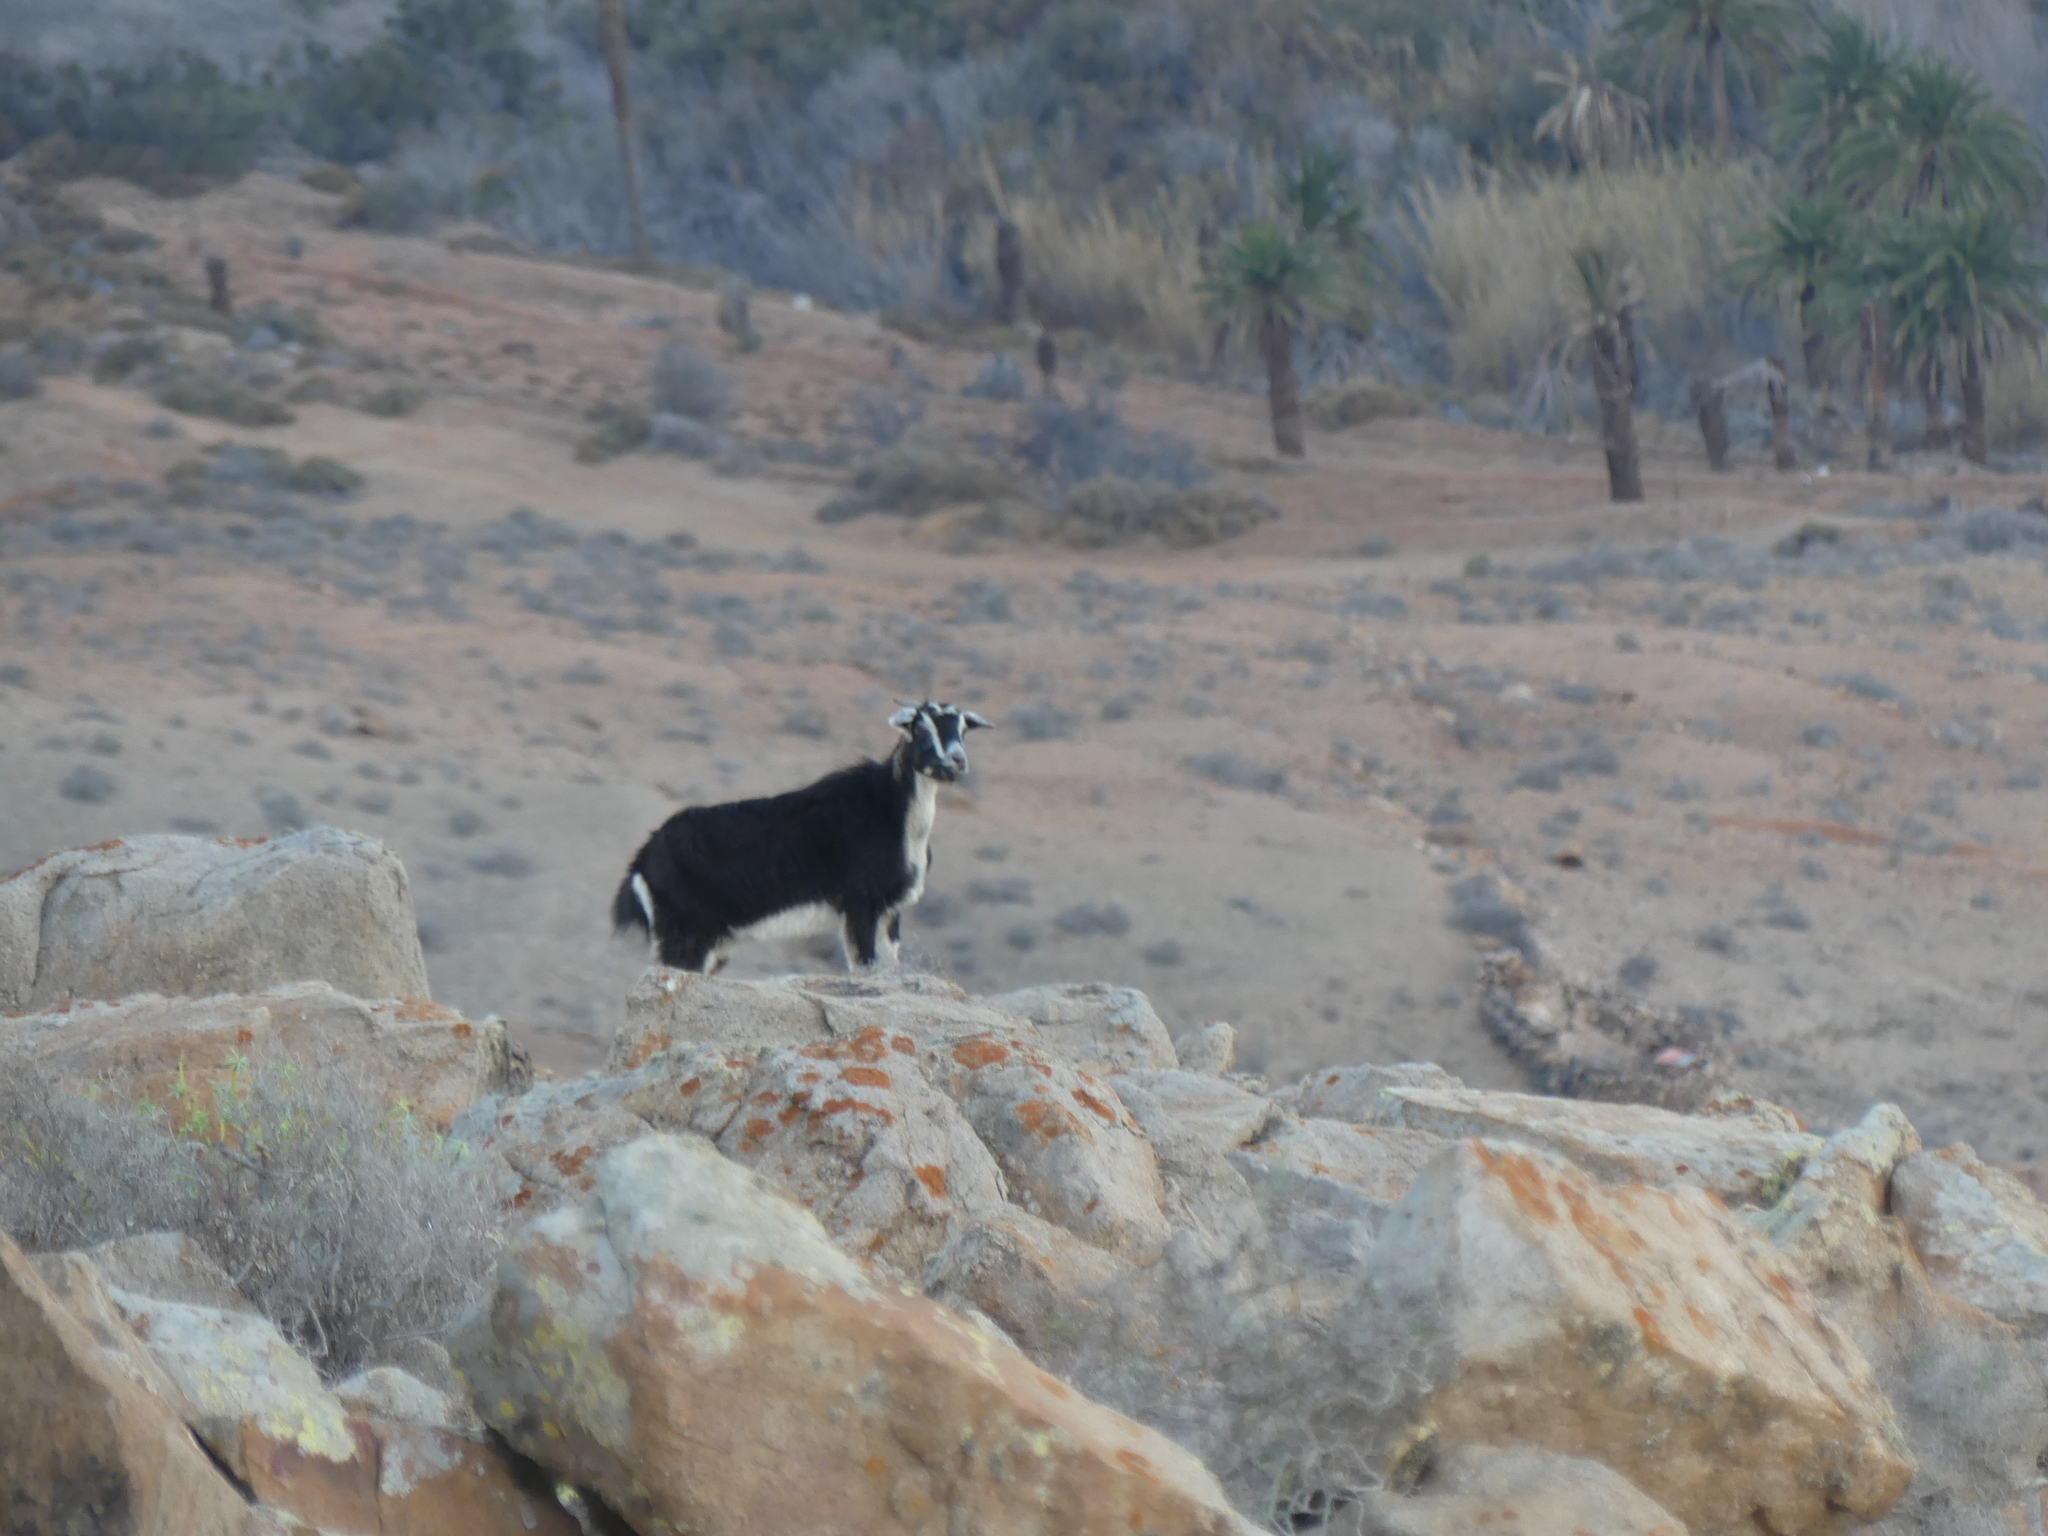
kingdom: Animalia
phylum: Chordata
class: Mammalia
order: Artiodactyla
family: Bovidae
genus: Capra
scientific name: Capra hircus
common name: Domestic goat
